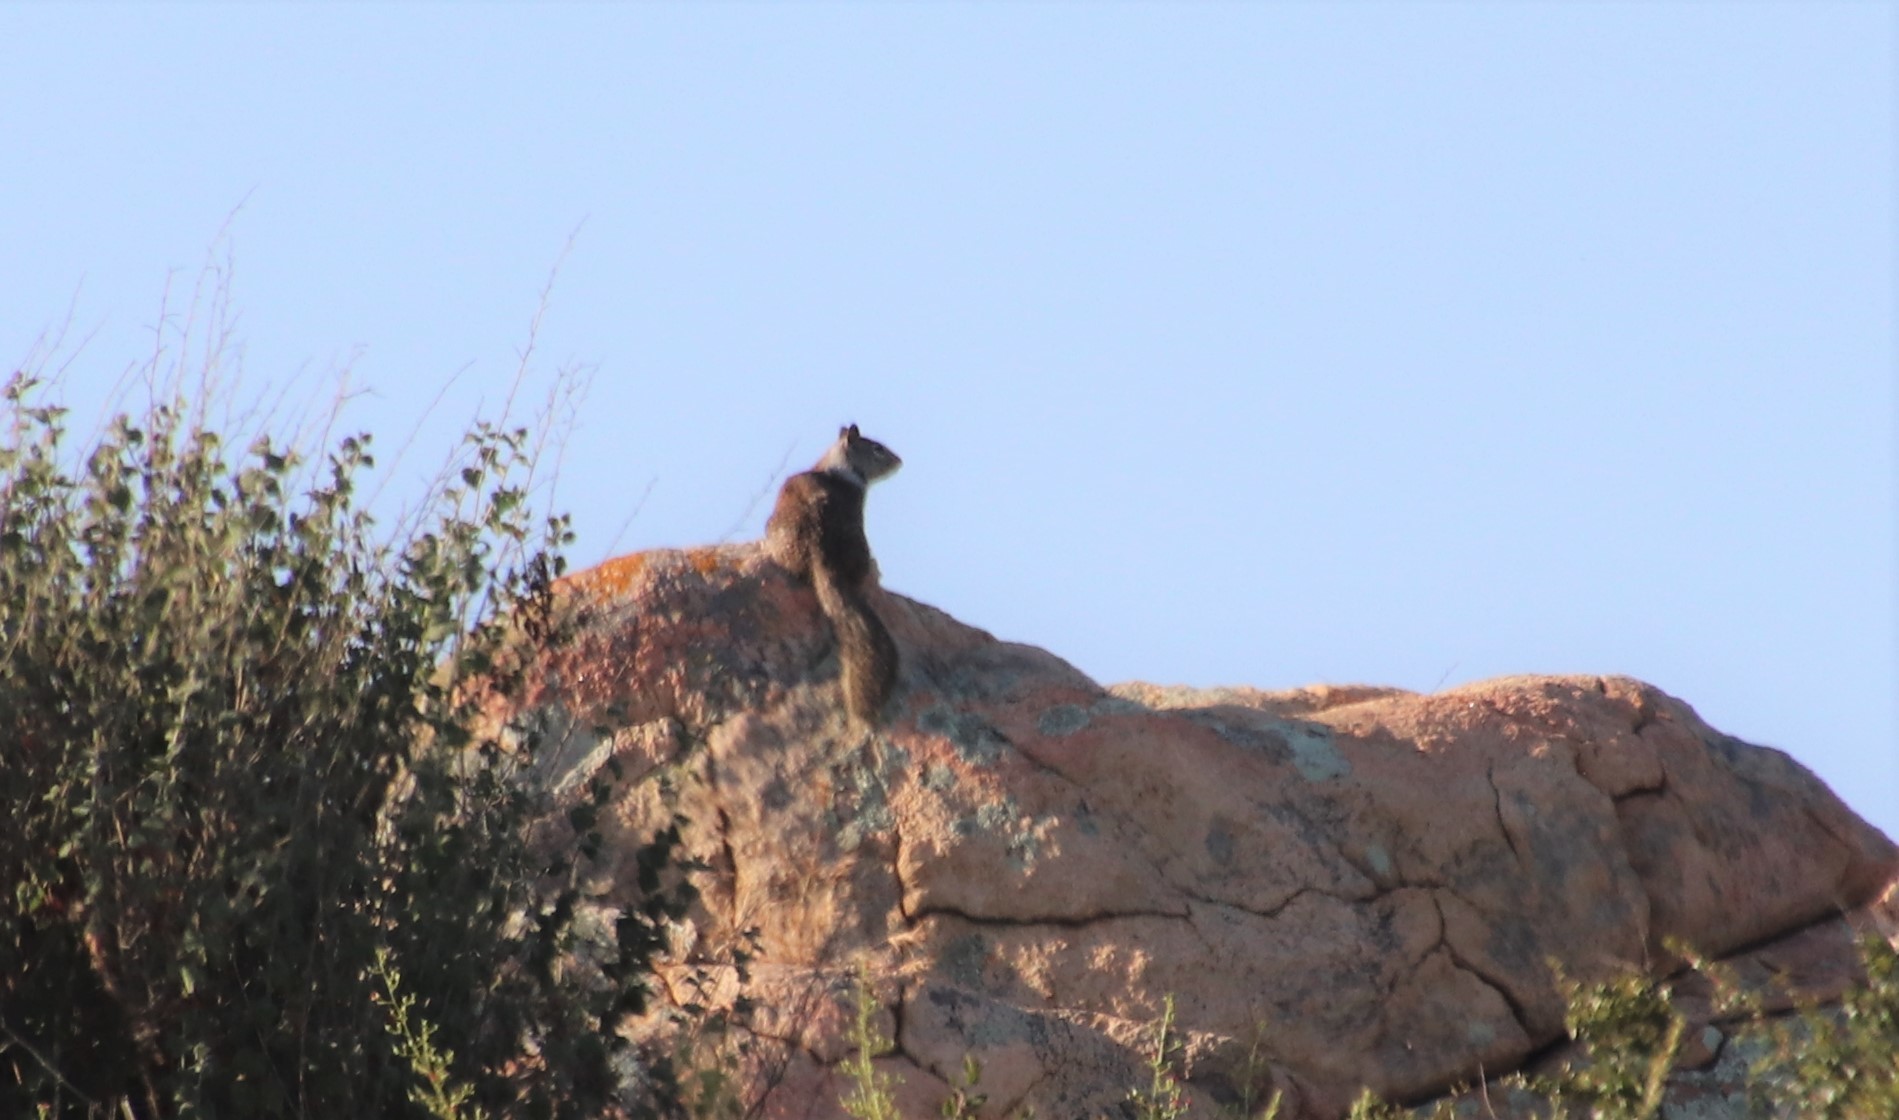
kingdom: Animalia
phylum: Chordata
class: Mammalia
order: Rodentia
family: Sciuridae
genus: Otospermophilus
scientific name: Otospermophilus beecheyi
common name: California ground squirrel
